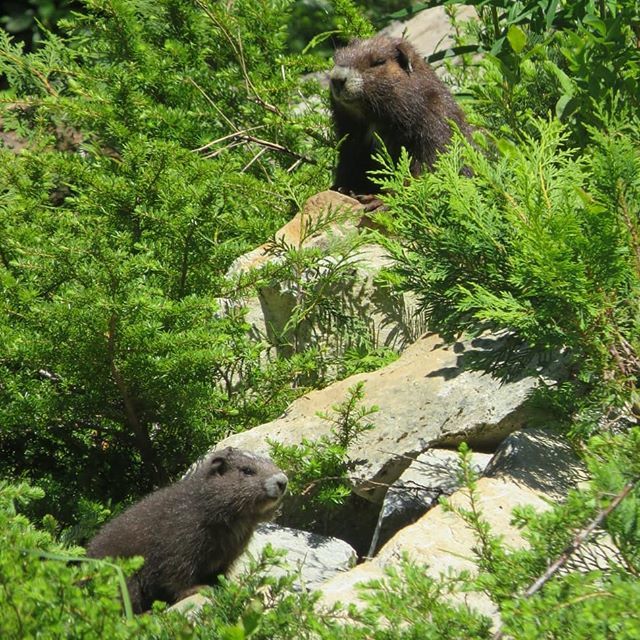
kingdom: Animalia
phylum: Chordata
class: Mammalia
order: Rodentia
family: Sciuridae
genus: Marmota
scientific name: Marmota vancouverensis
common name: Vancouver island marmot
